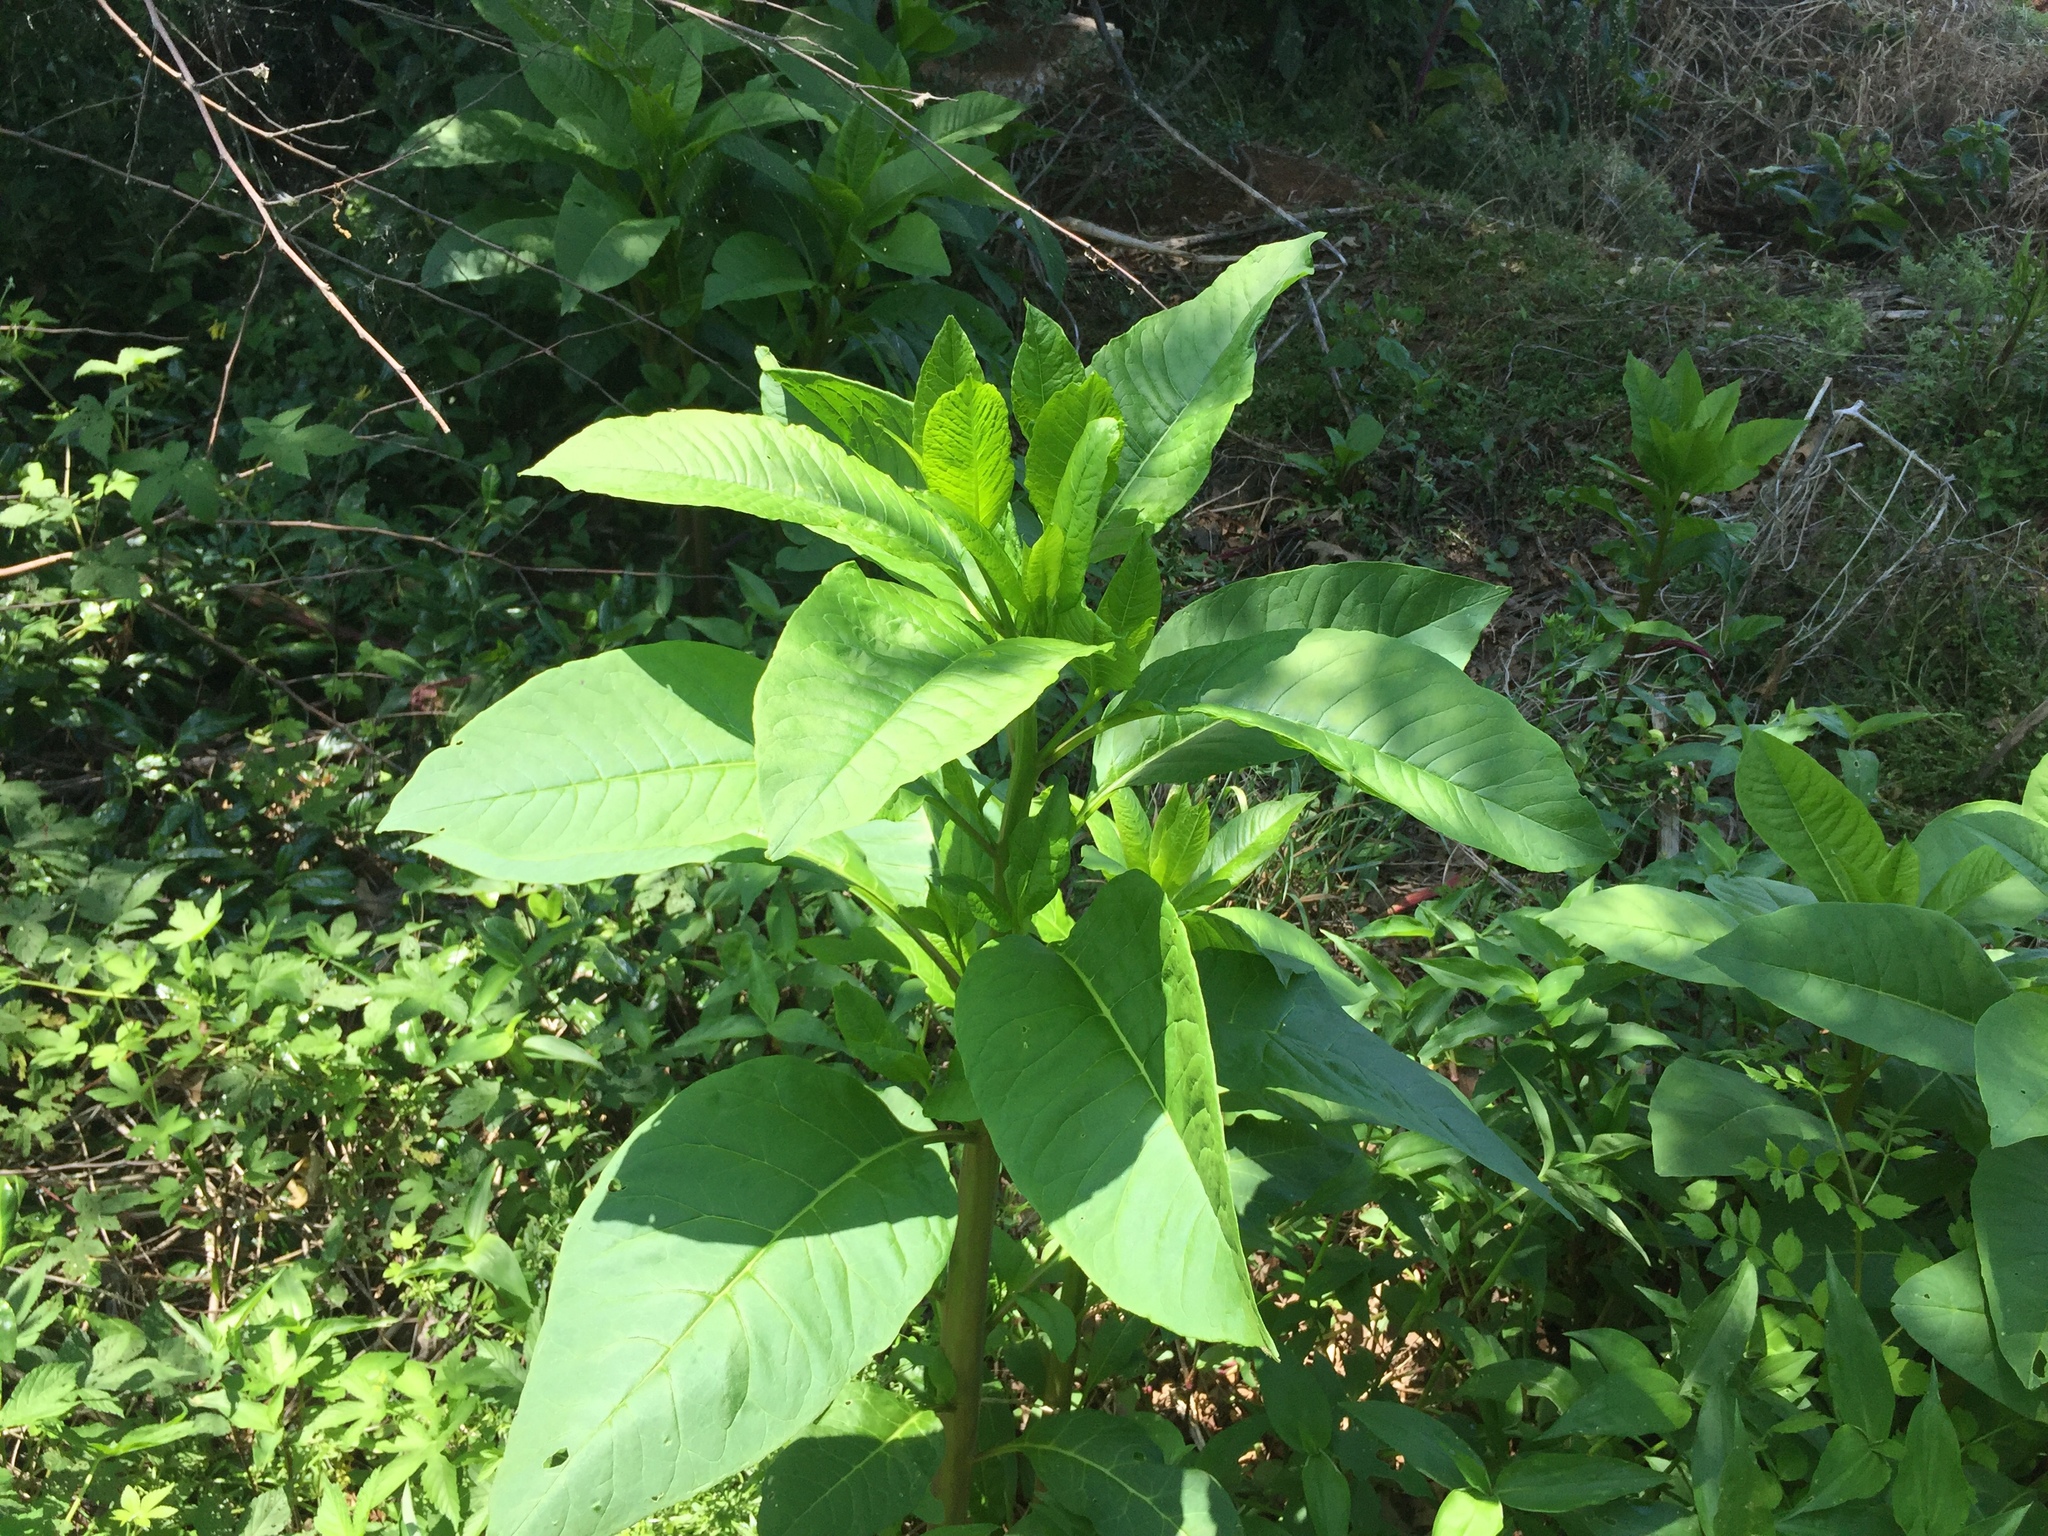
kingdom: Plantae
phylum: Tracheophyta
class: Magnoliopsida
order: Caryophyllales
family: Phytolaccaceae
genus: Phytolacca
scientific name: Phytolacca americana
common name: American pokeweed
